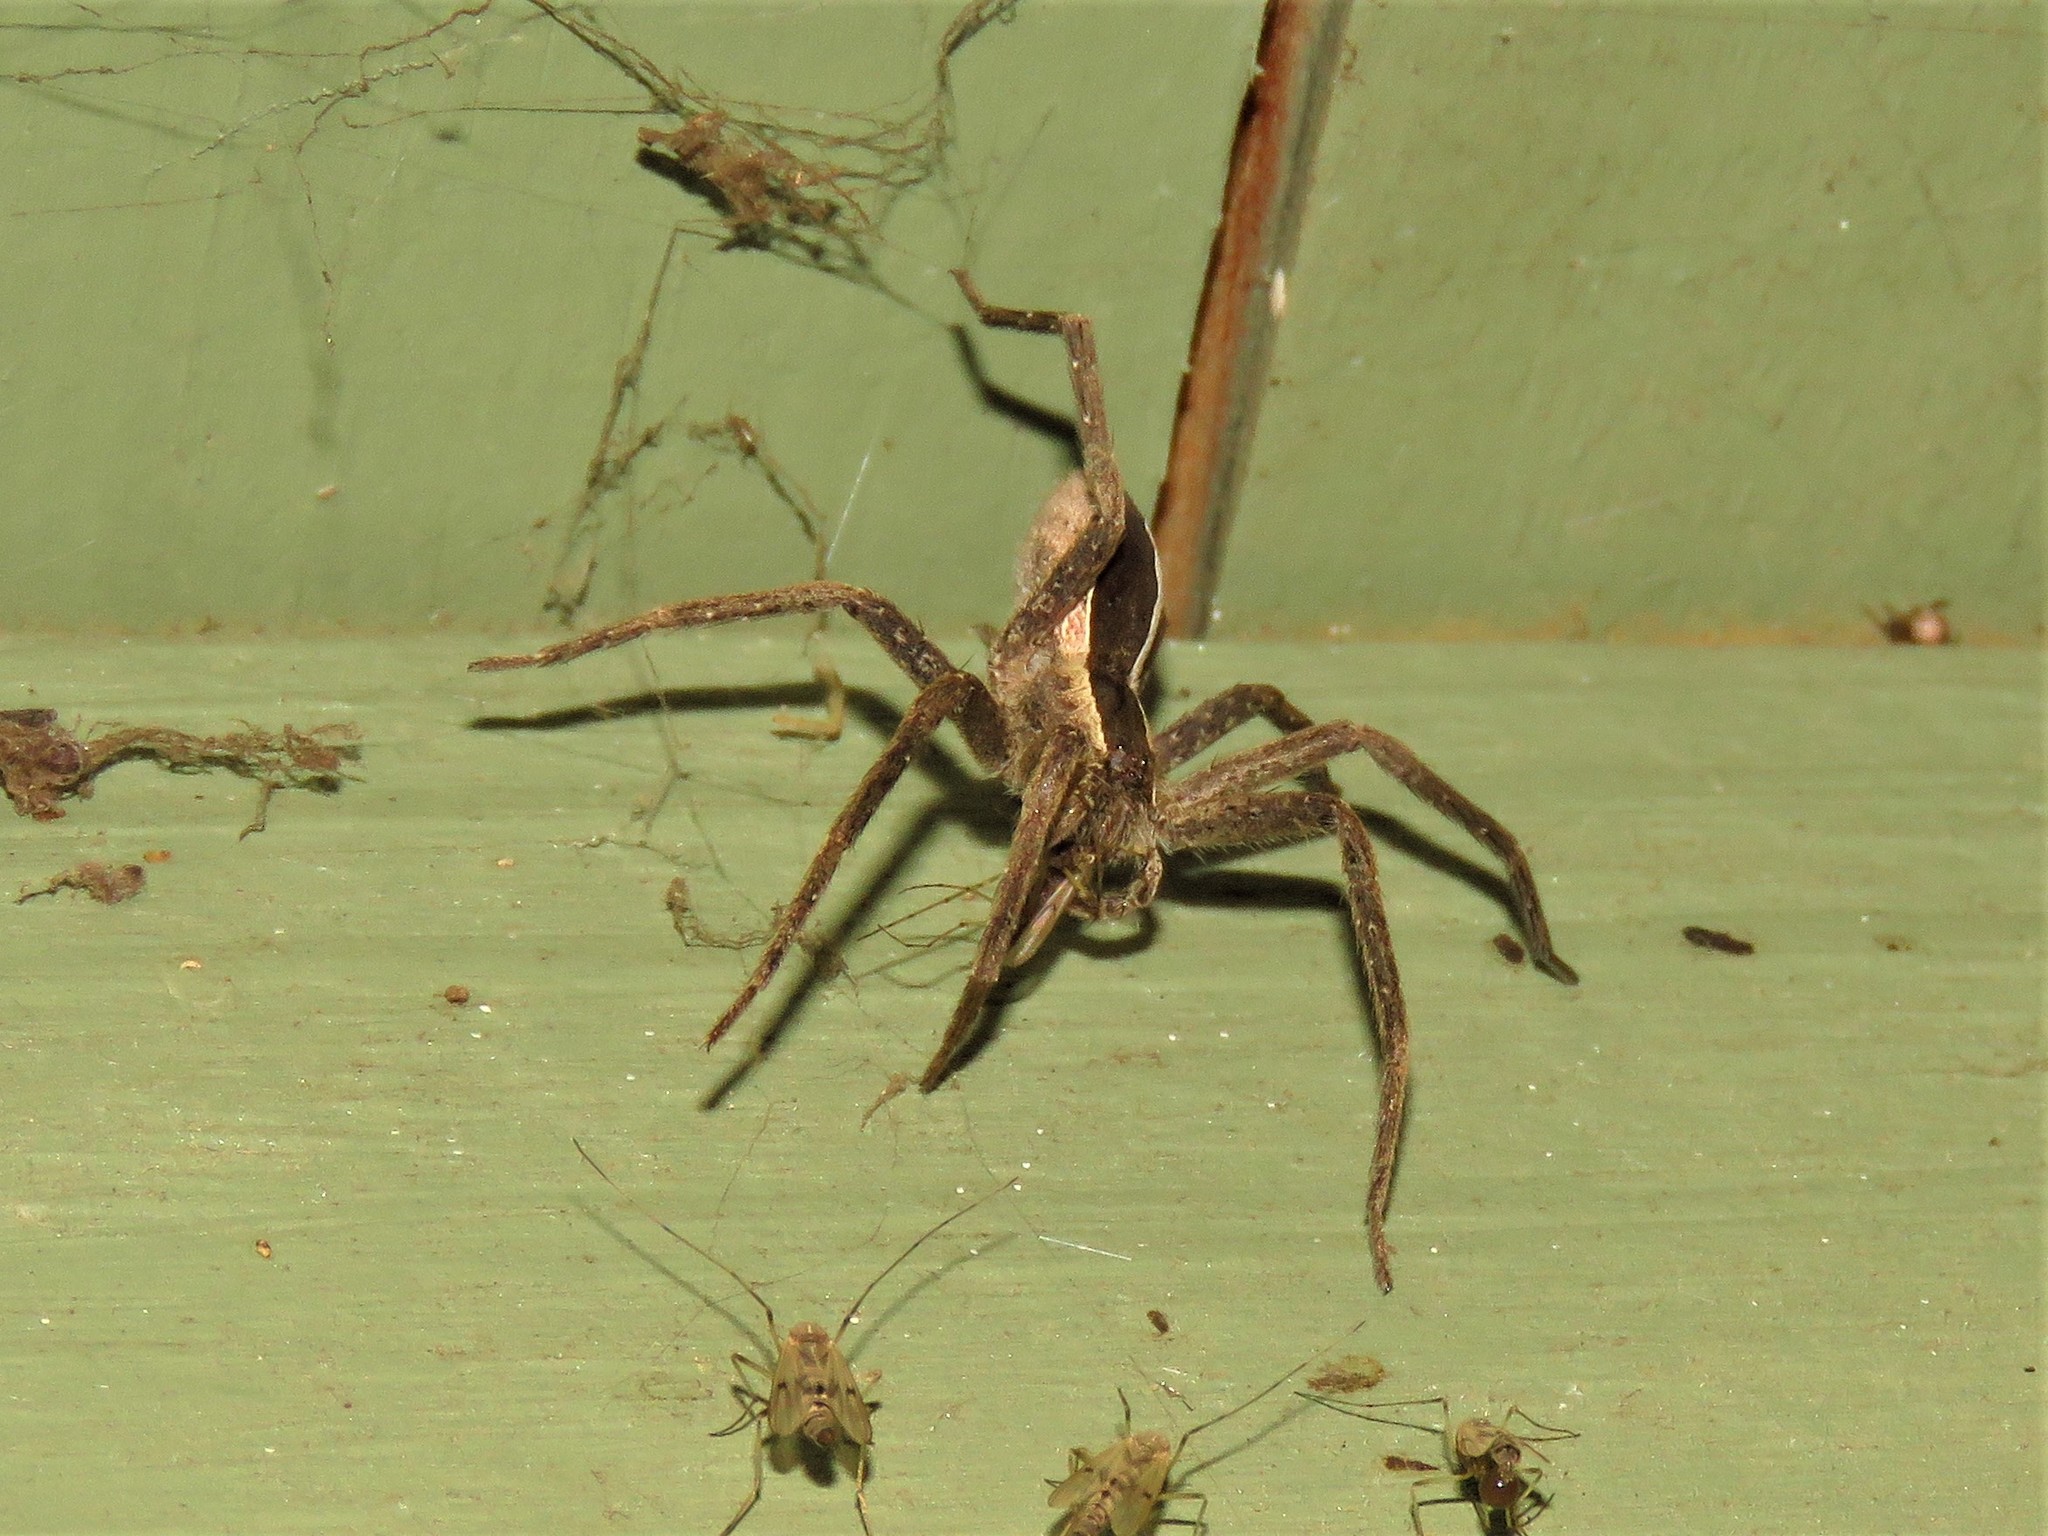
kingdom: Animalia
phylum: Arthropoda
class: Arachnida
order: Araneae
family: Pisauridae
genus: Pisaurina
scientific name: Pisaurina mira
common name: American nursery web spider
